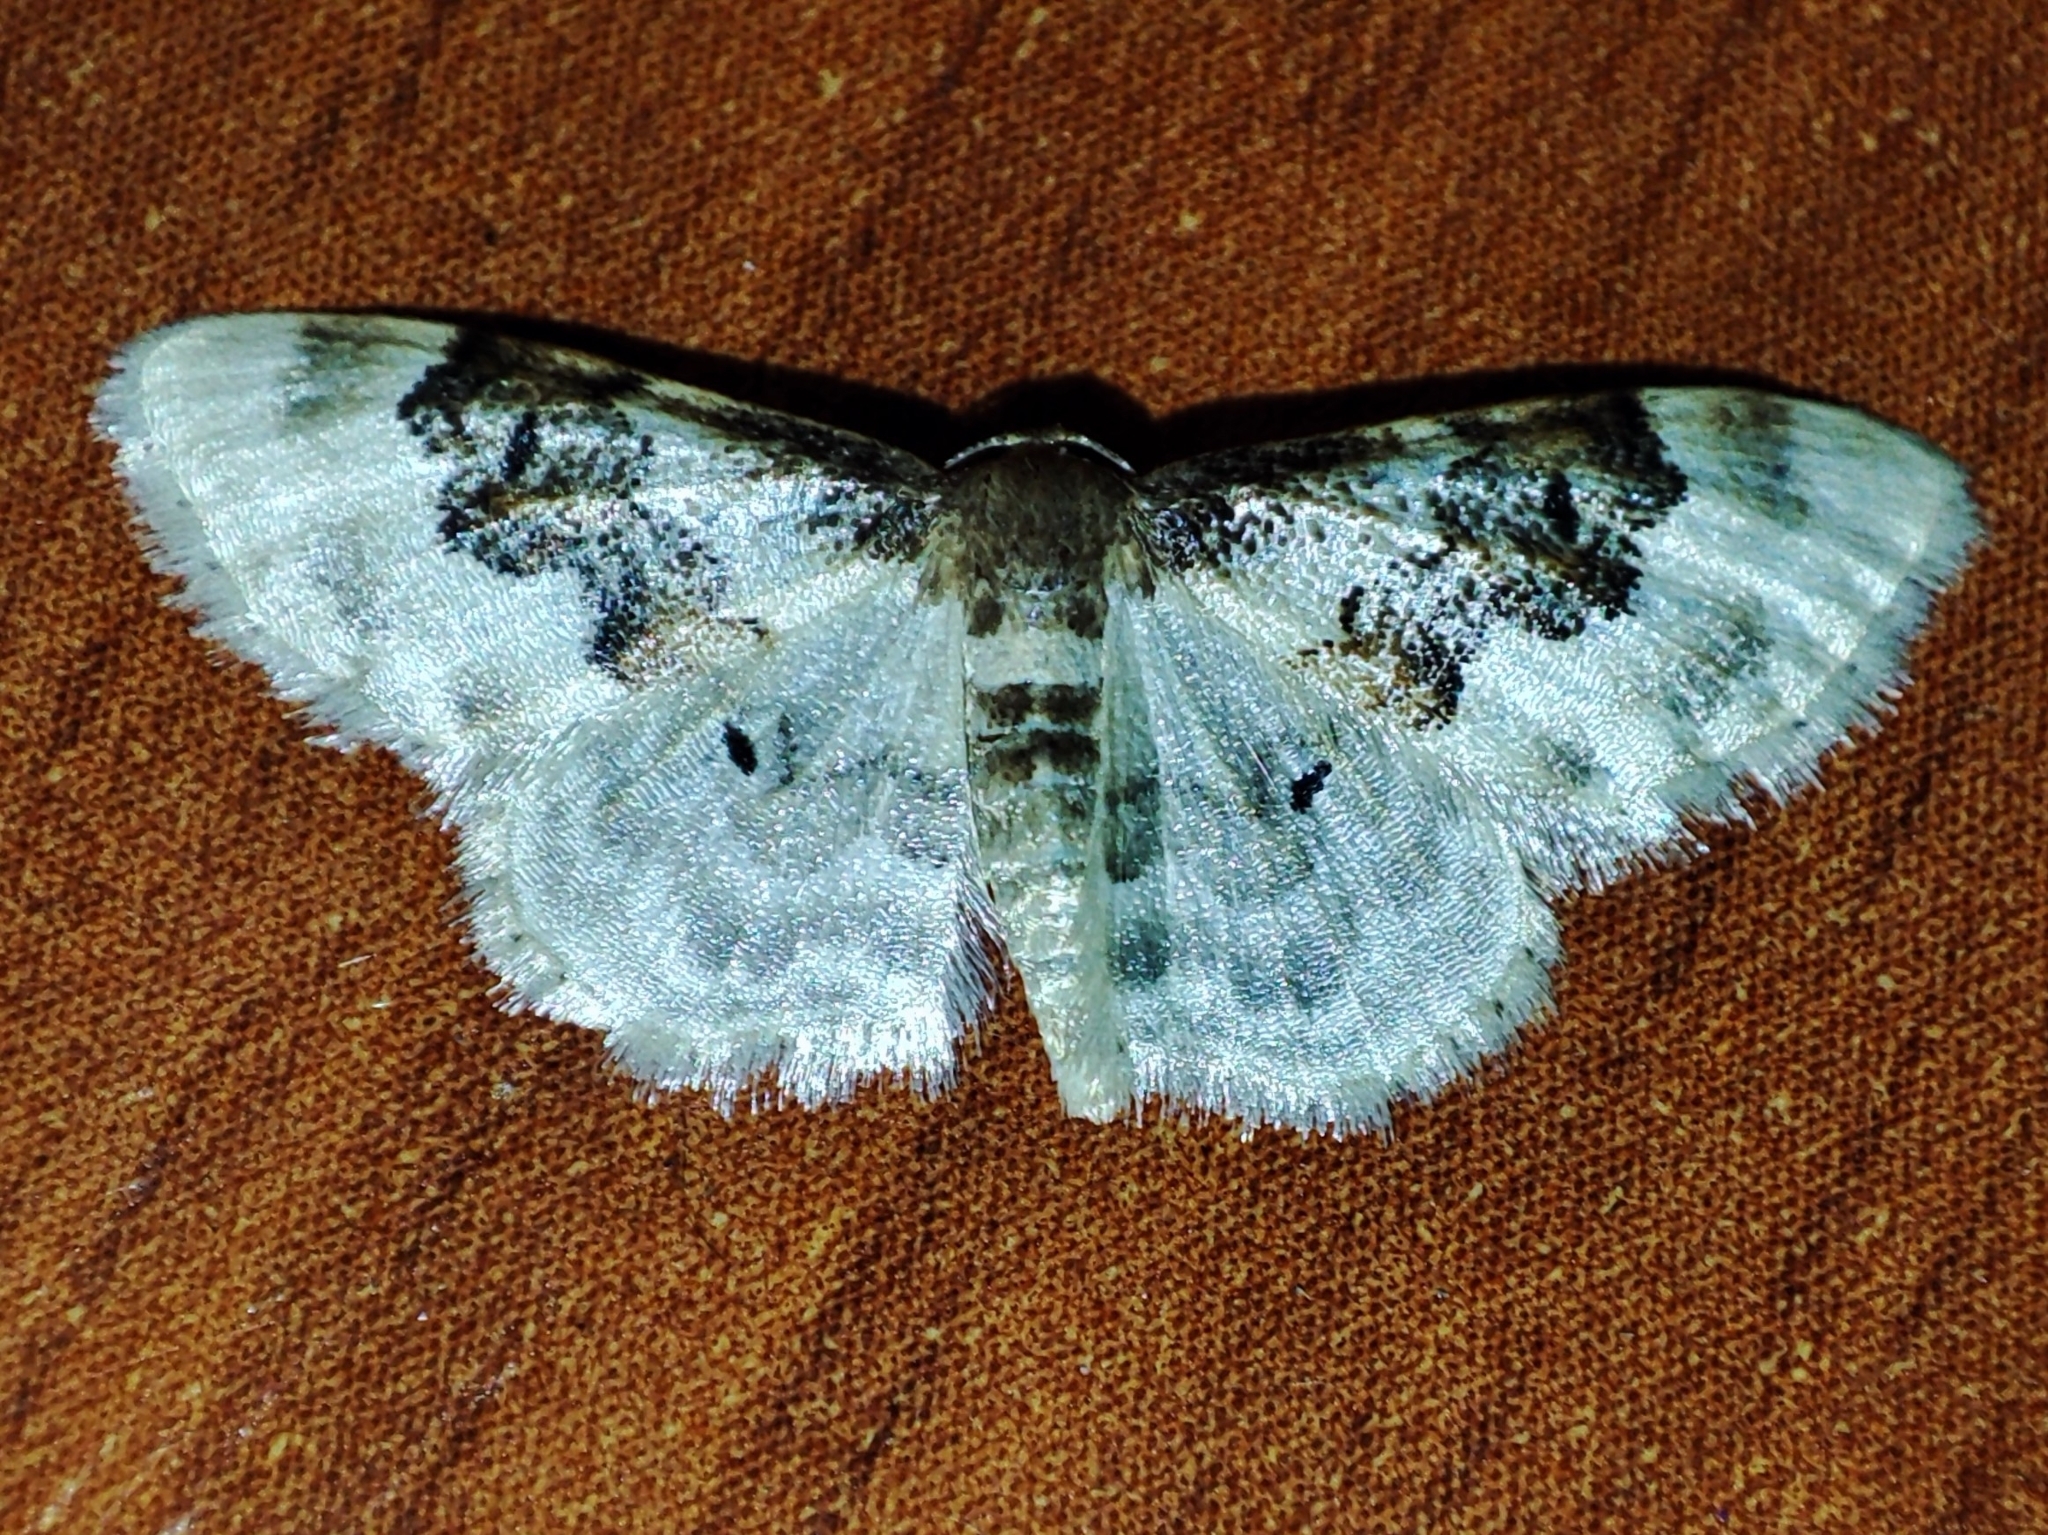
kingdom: Animalia
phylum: Arthropoda
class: Insecta
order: Lepidoptera
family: Geometridae
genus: Idaea
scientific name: Idaea rusticata
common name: Least carpet
